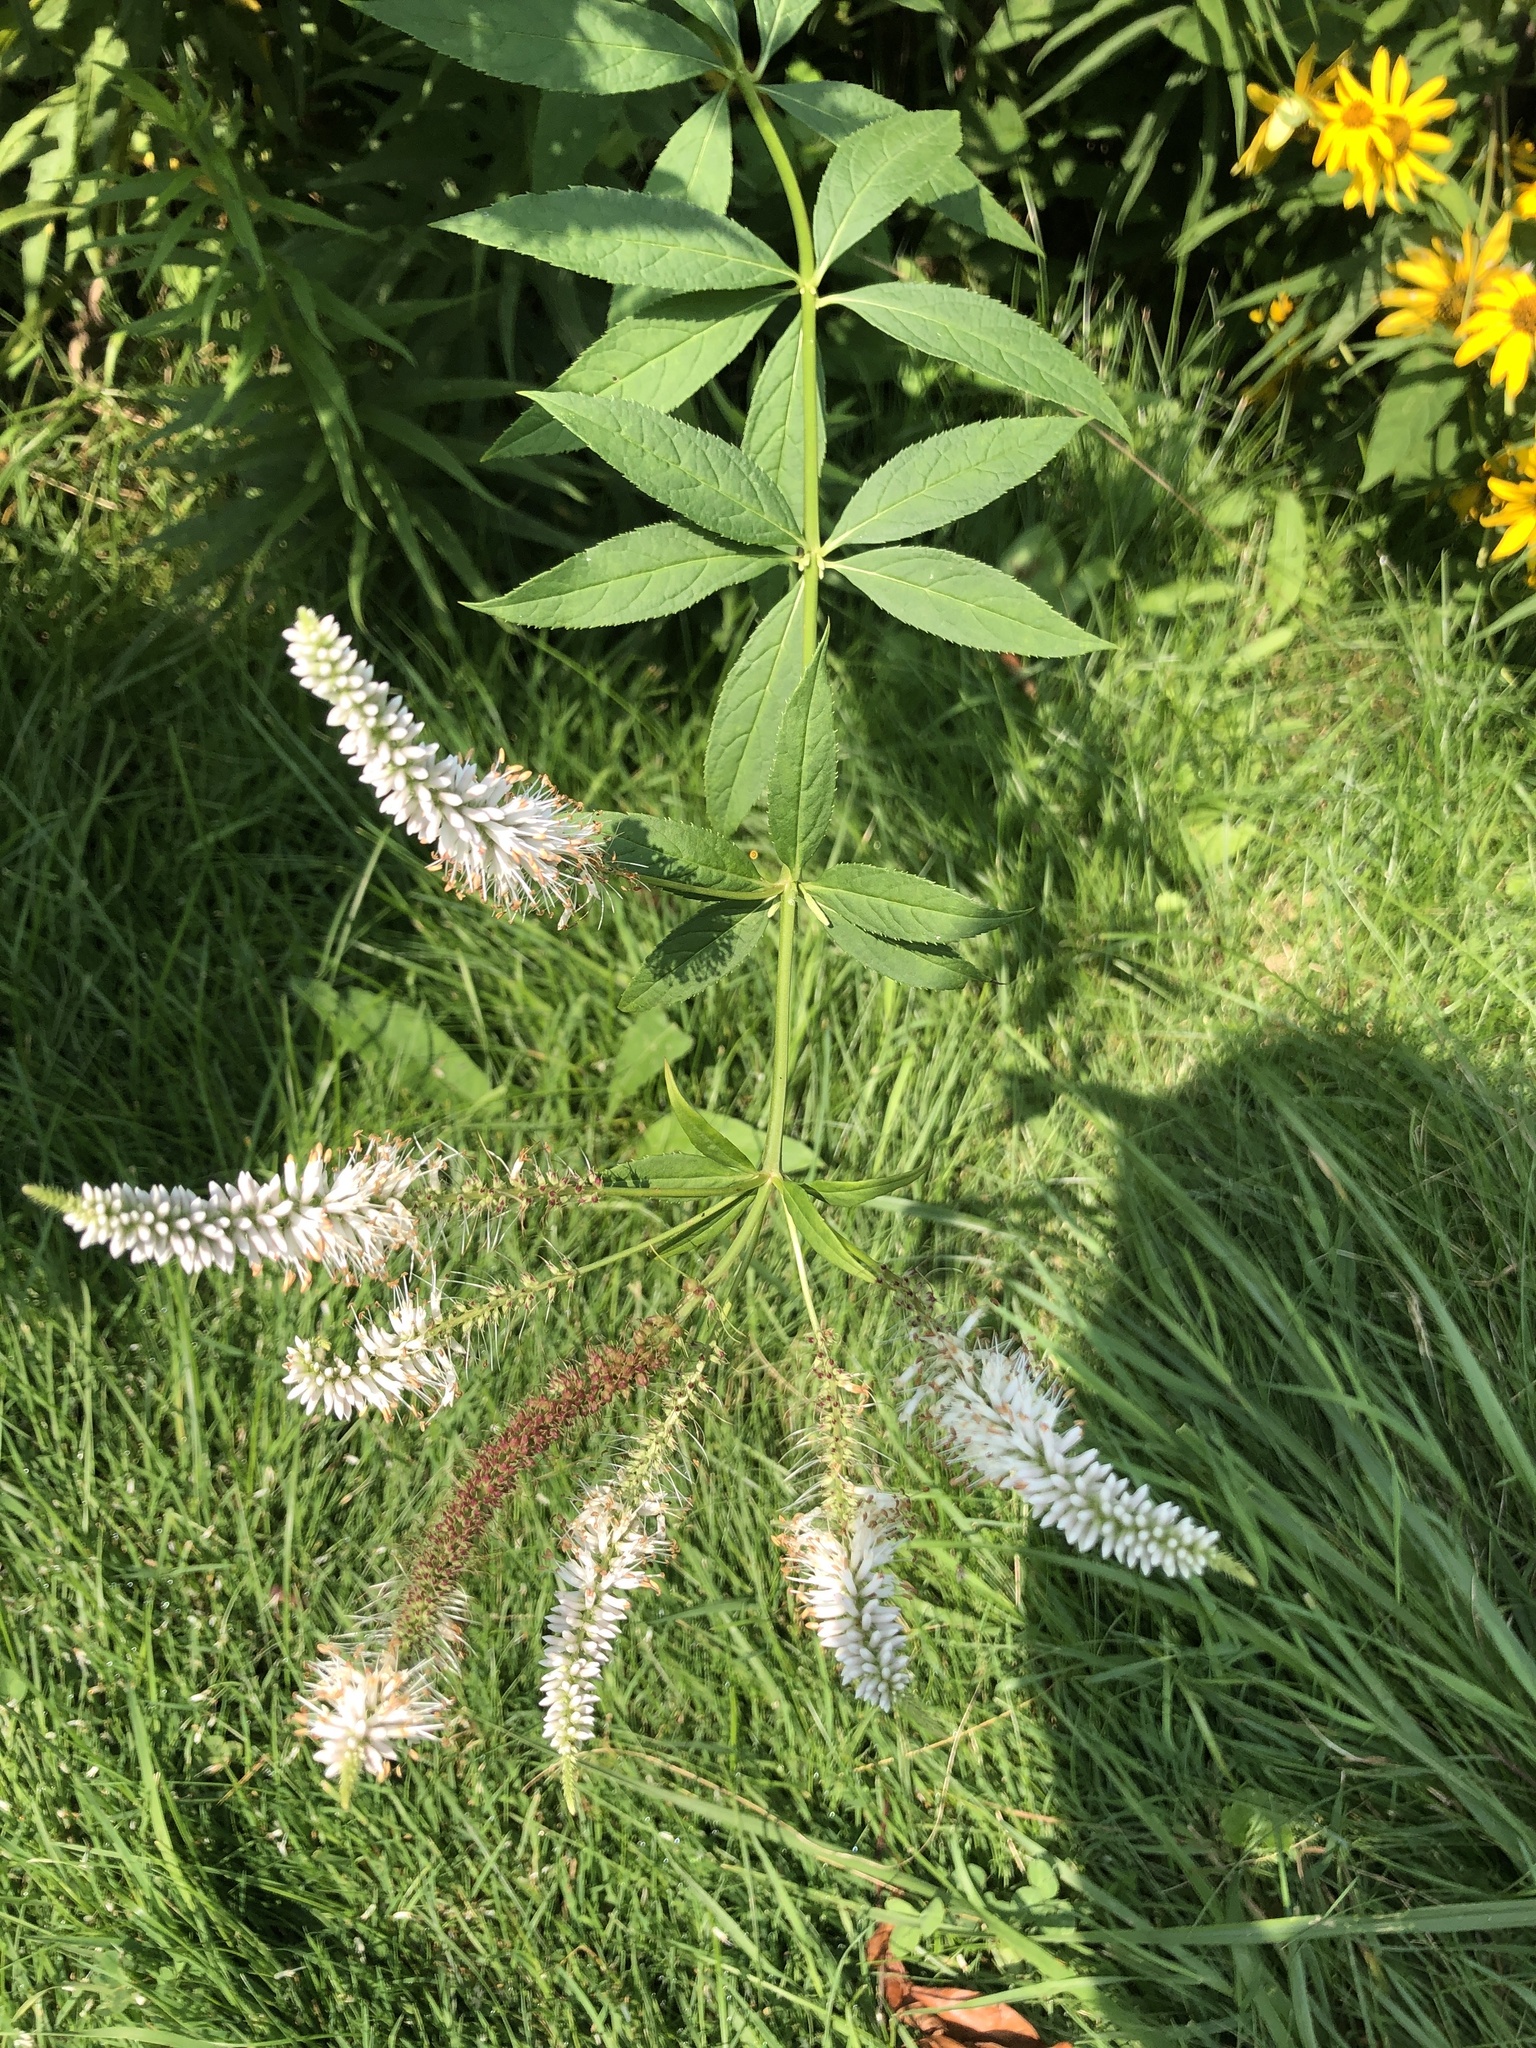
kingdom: Plantae
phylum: Tracheophyta
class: Magnoliopsida
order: Lamiales
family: Plantaginaceae
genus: Veronicastrum
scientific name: Veronicastrum virginicum
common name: Blackroot
